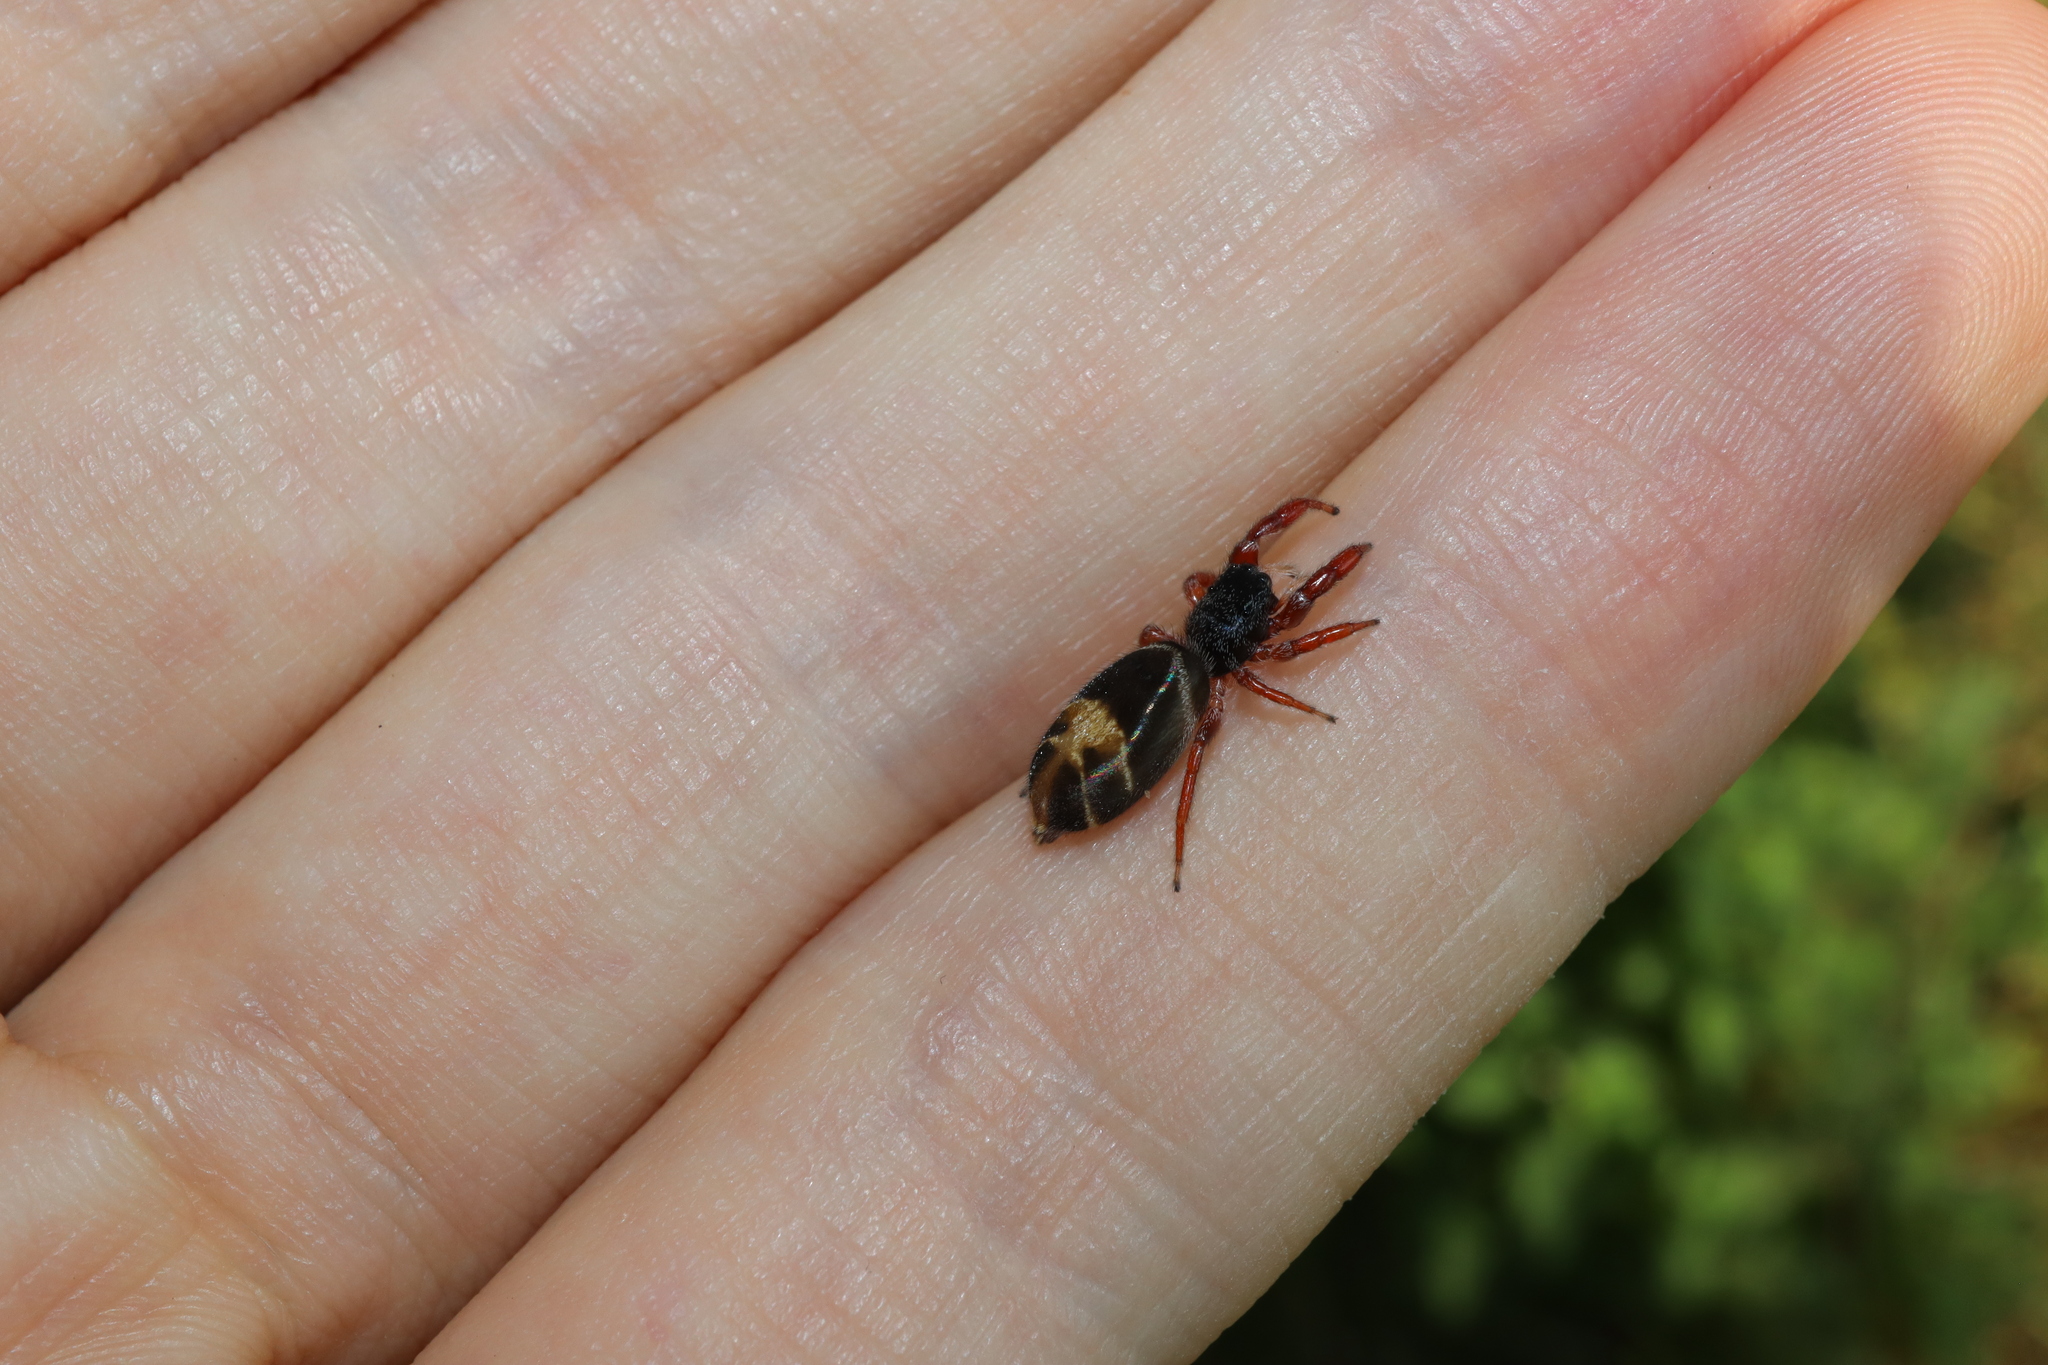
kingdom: Animalia
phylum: Arthropoda
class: Arachnida
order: Araneae
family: Salticidae
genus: Apricia
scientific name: Apricia jovialis
